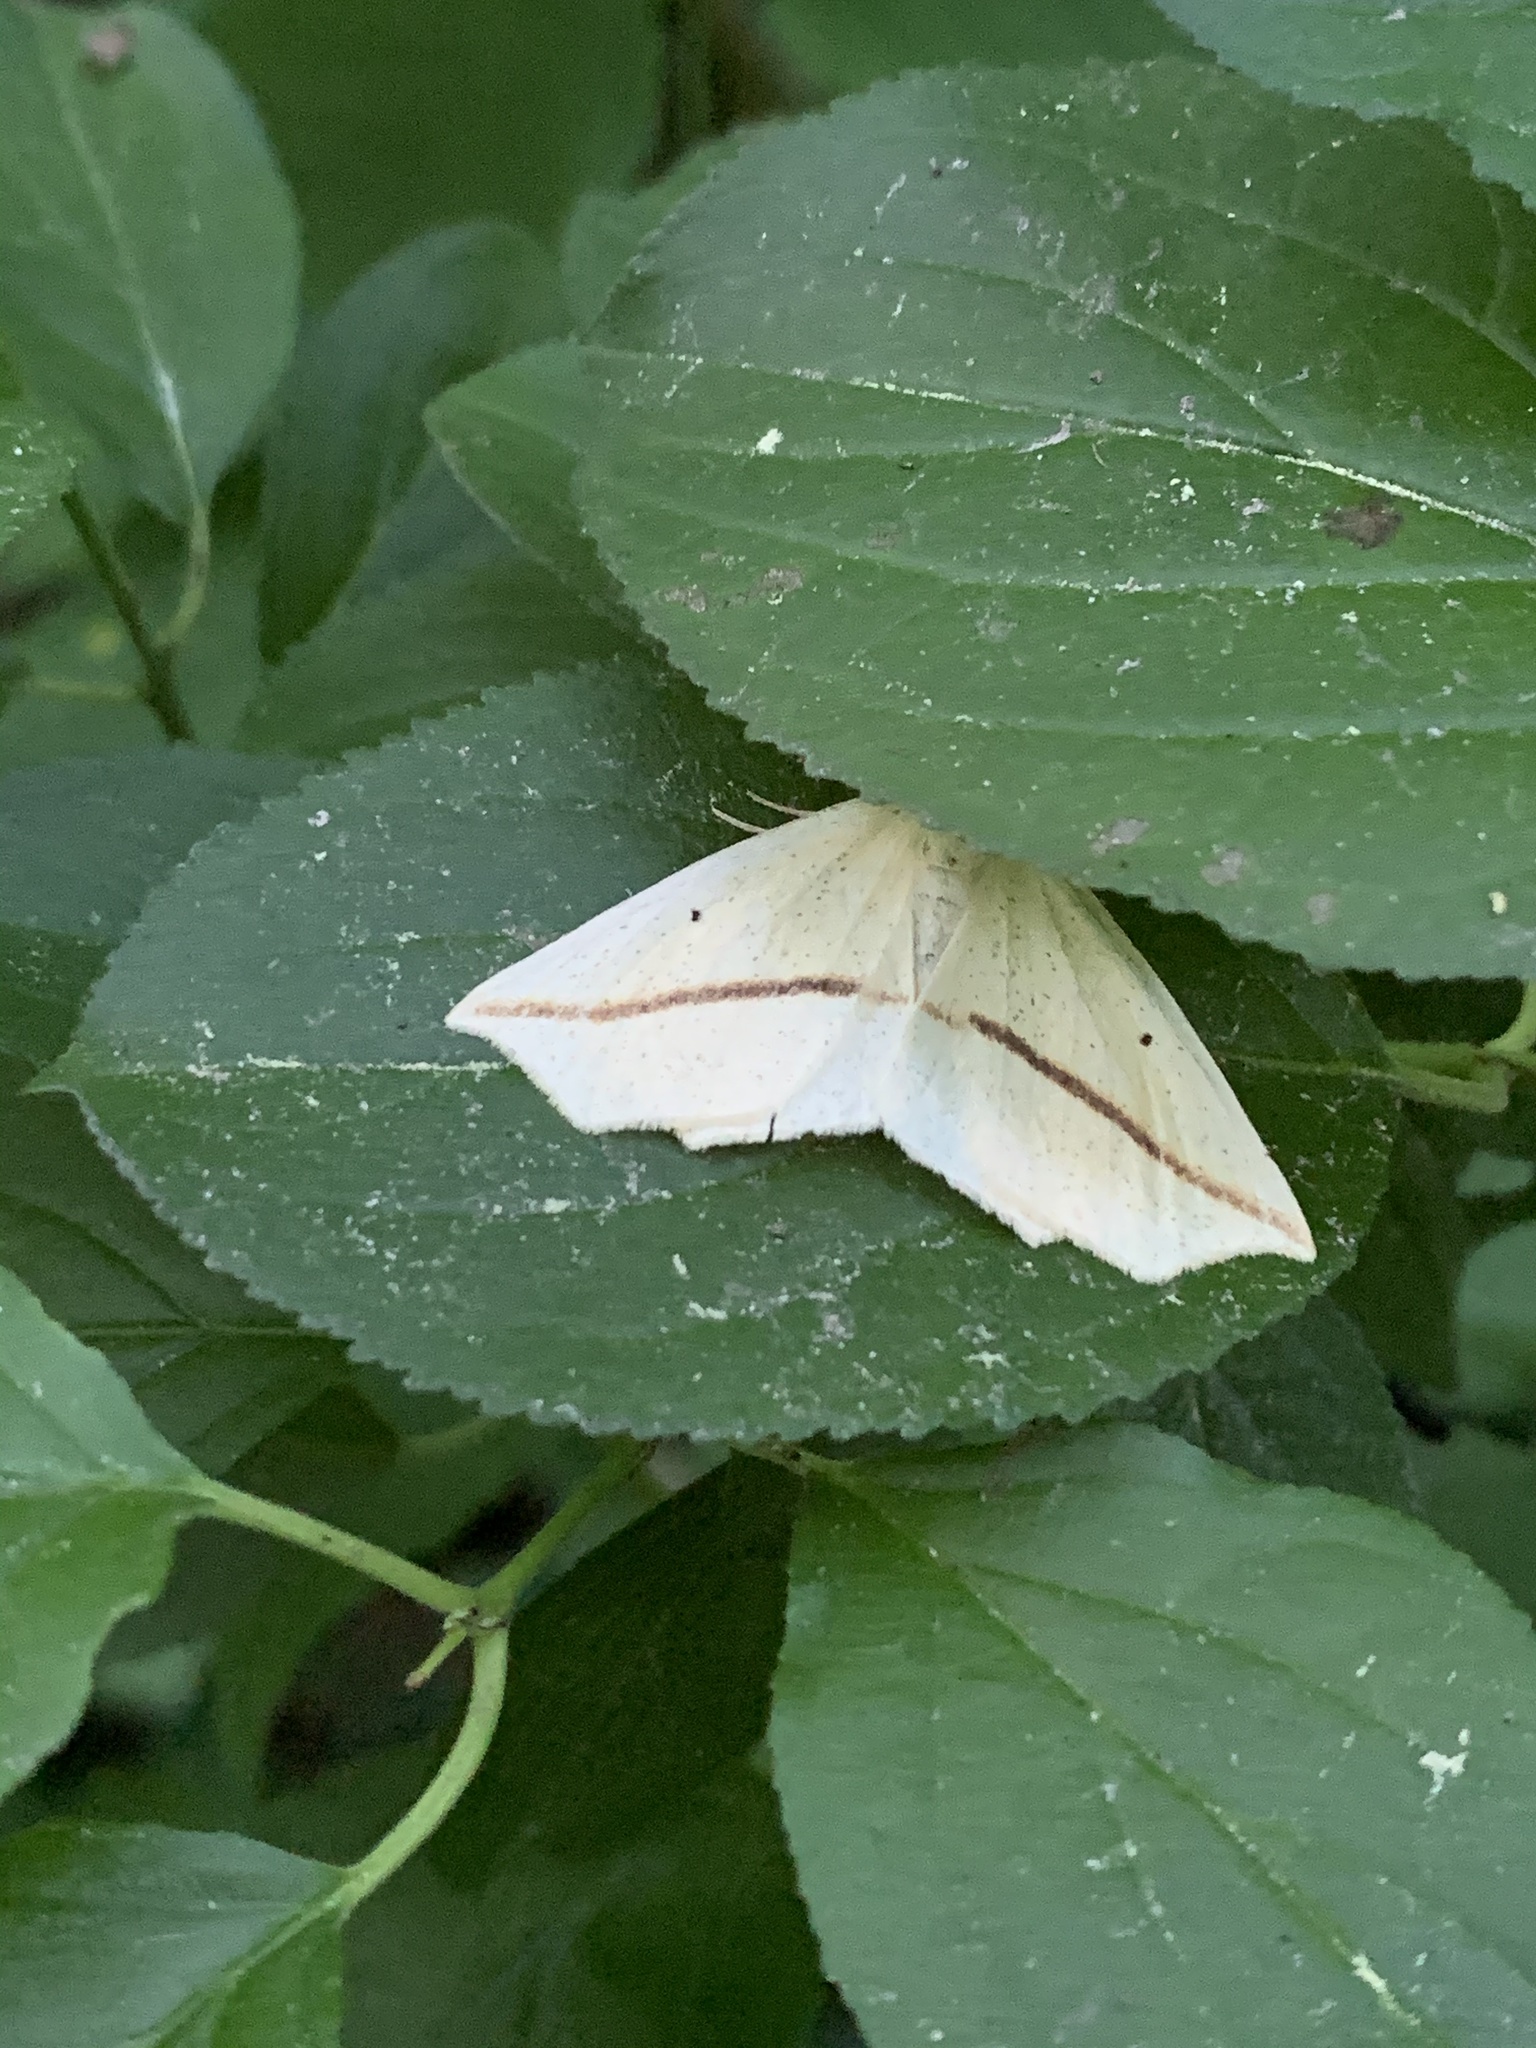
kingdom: Animalia
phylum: Arthropoda
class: Insecta
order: Lepidoptera
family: Geometridae
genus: Tetracis
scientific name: Tetracis crocallata
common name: Yellow slant-line
